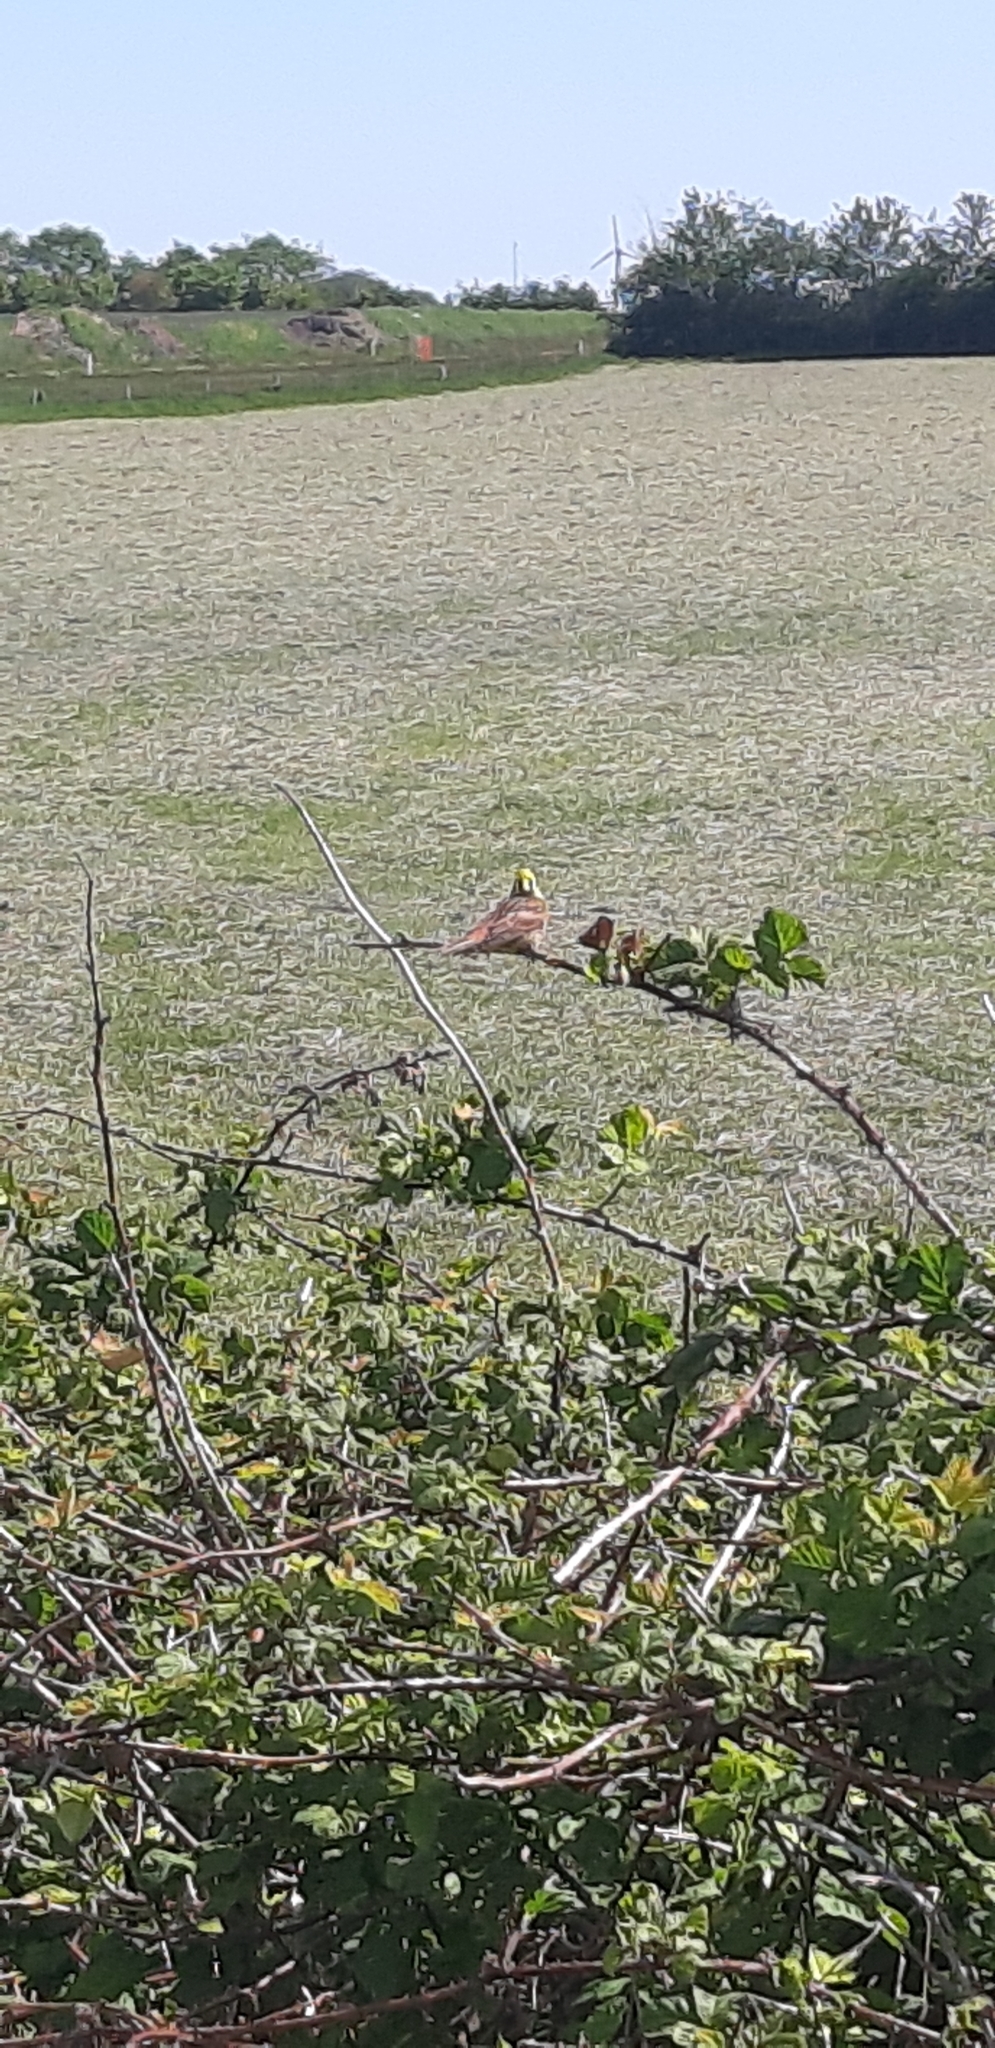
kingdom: Animalia
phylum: Chordata
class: Aves
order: Passeriformes
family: Emberizidae
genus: Emberiza
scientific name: Emberiza citrinella
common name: Yellowhammer
